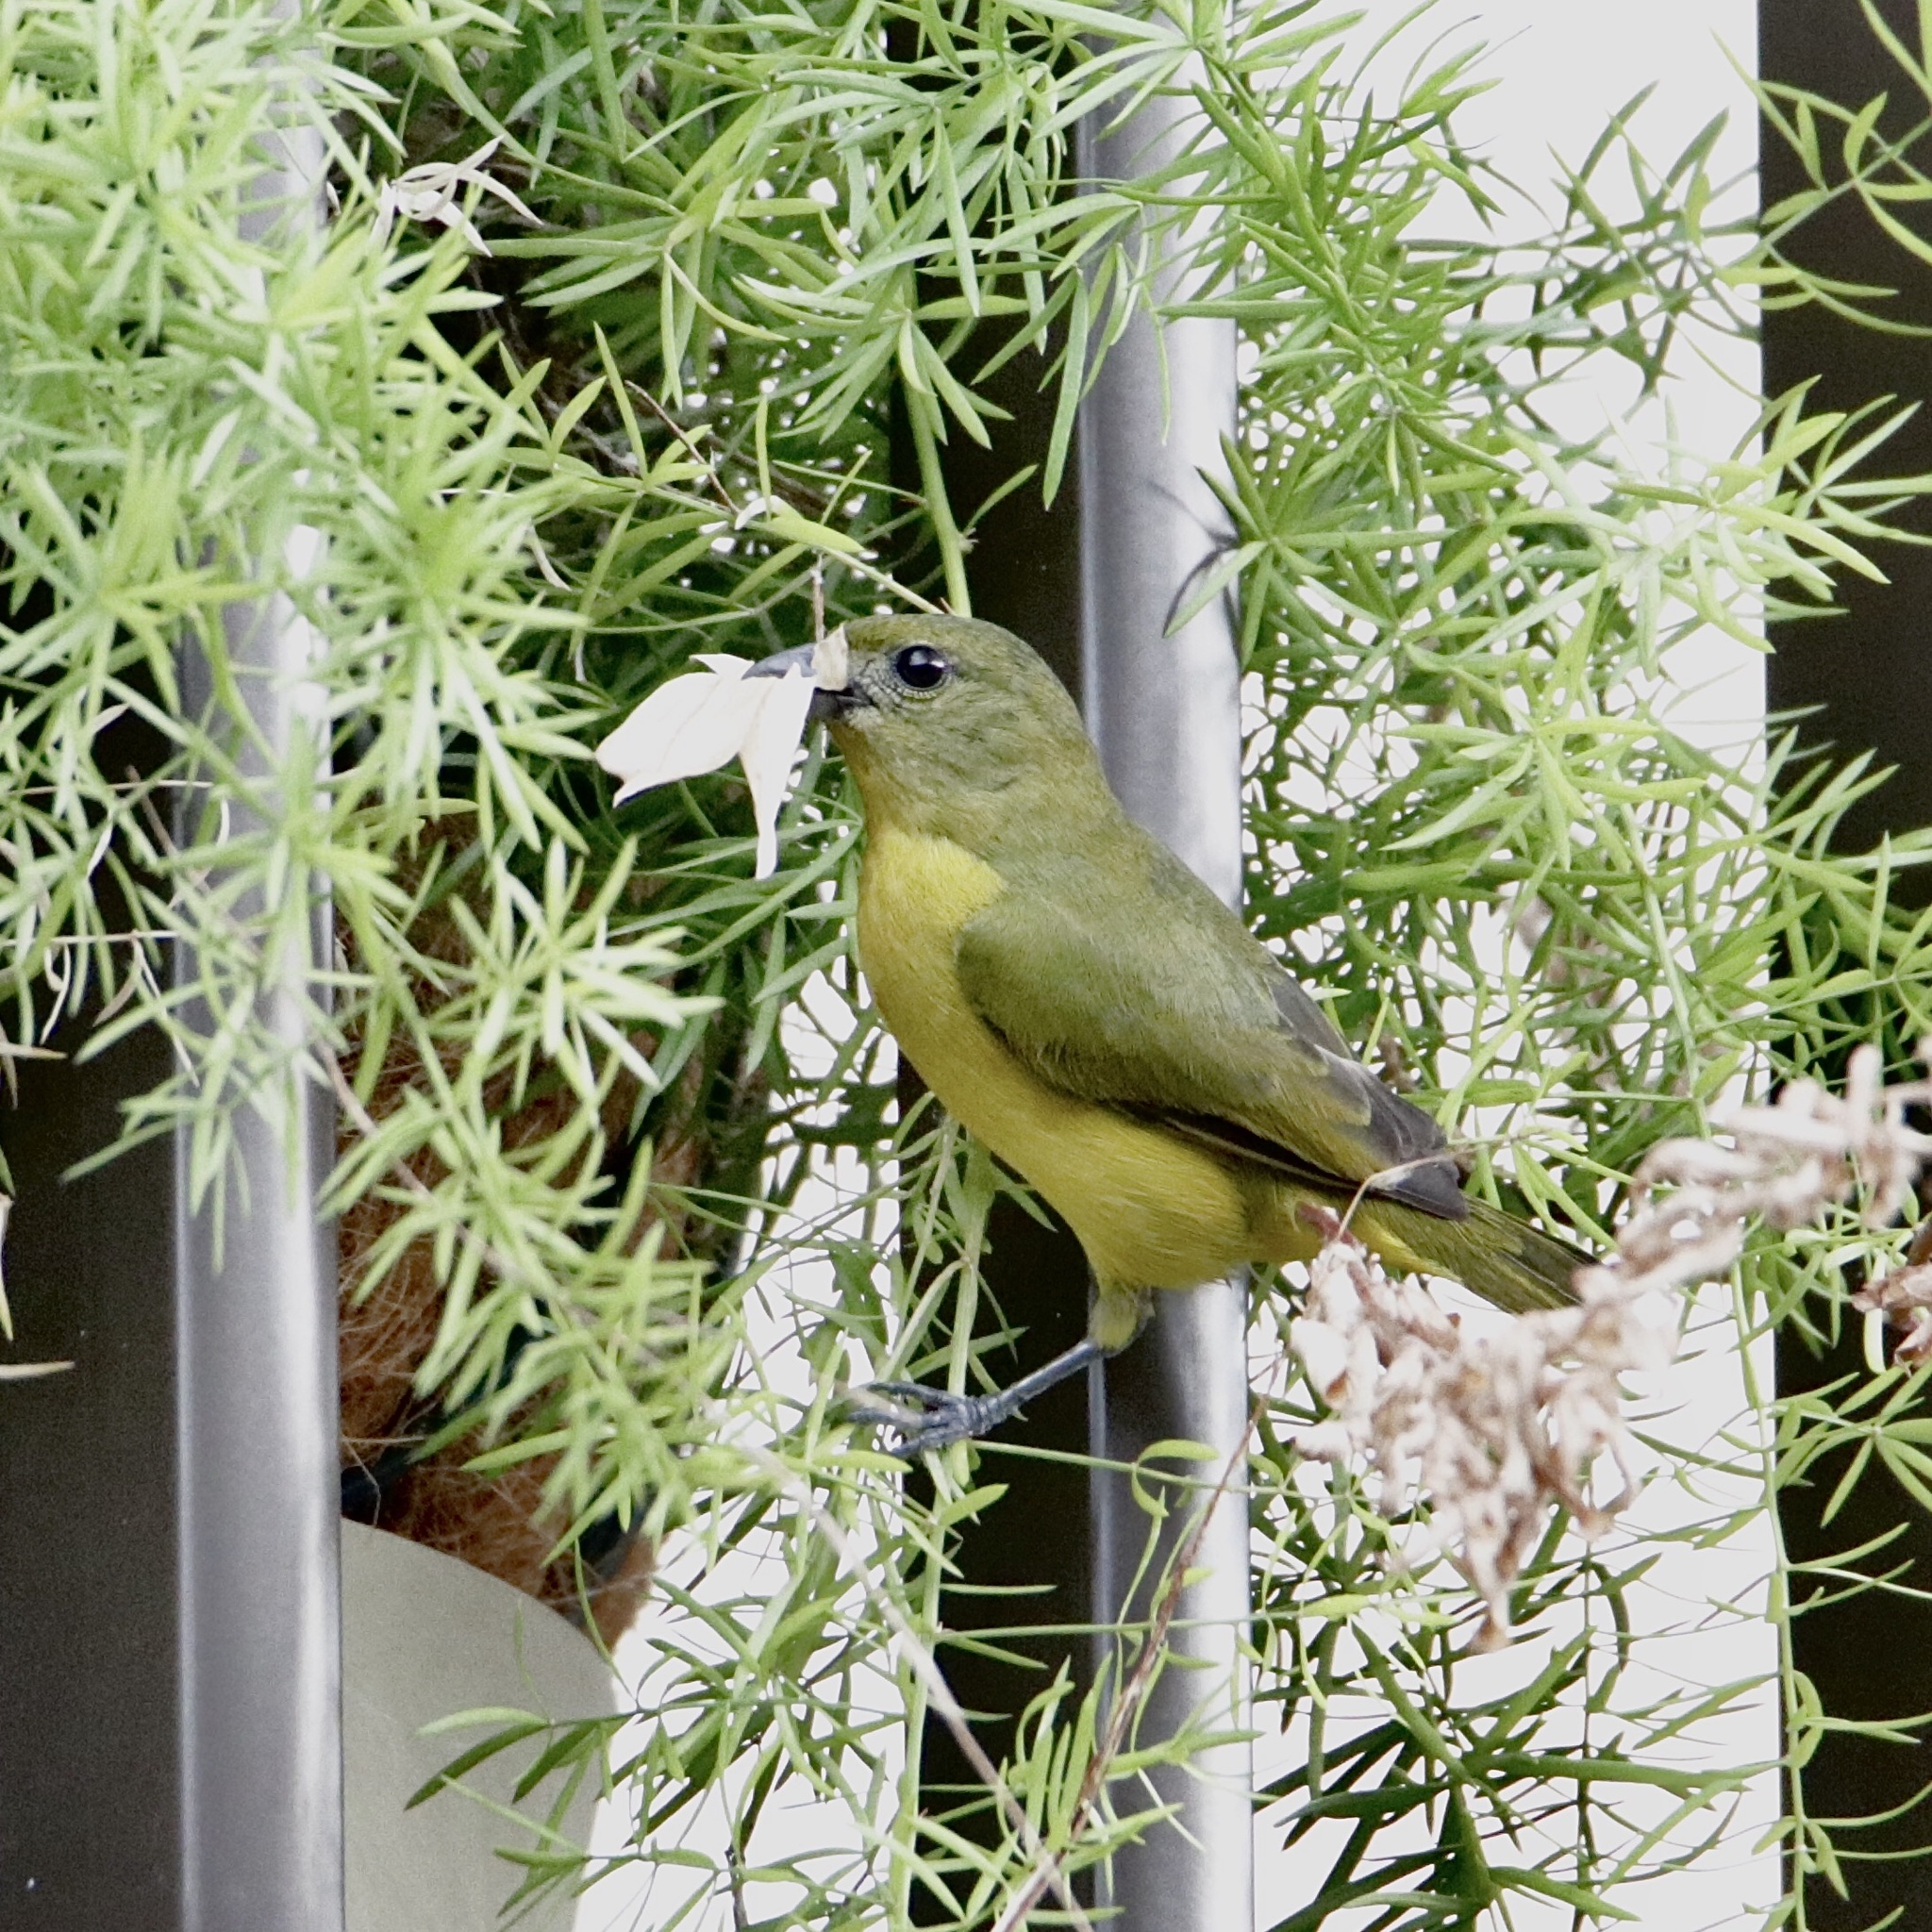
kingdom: Animalia
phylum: Chordata
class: Aves
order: Passeriformes
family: Fringillidae
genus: Euphonia
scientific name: Euphonia laniirostris
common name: Thick-billed euphonia
